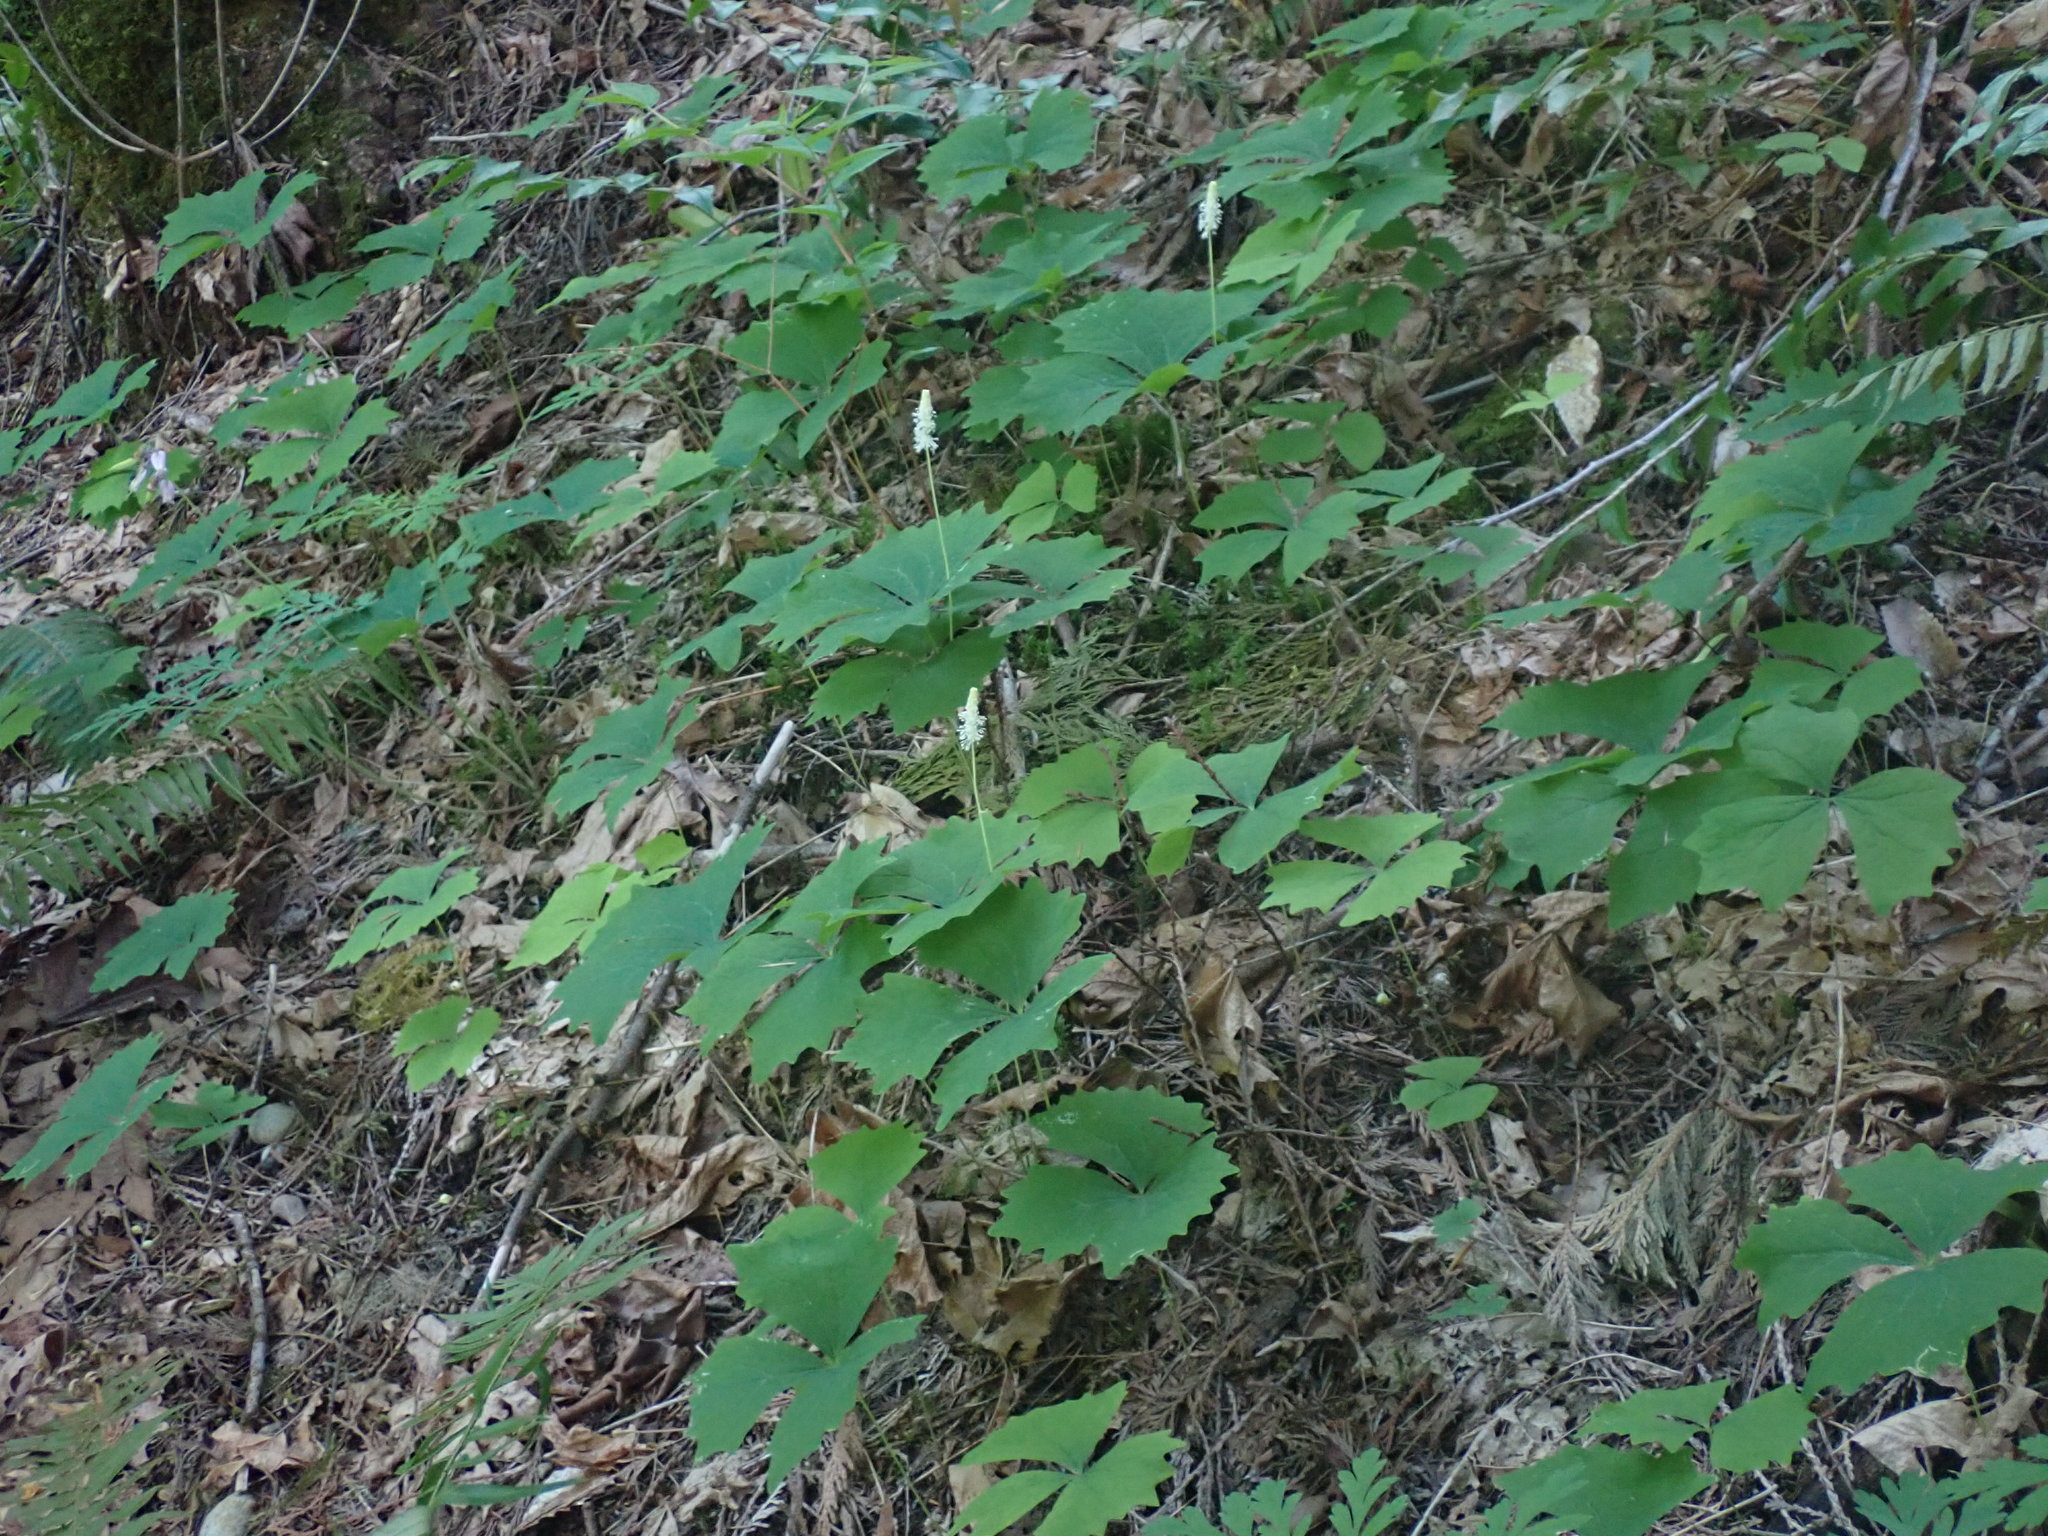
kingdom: Plantae
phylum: Tracheophyta
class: Magnoliopsida
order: Ranunculales
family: Berberidaceae
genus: Achlys
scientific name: Achlys triphylla
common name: Vanilla-leaf
